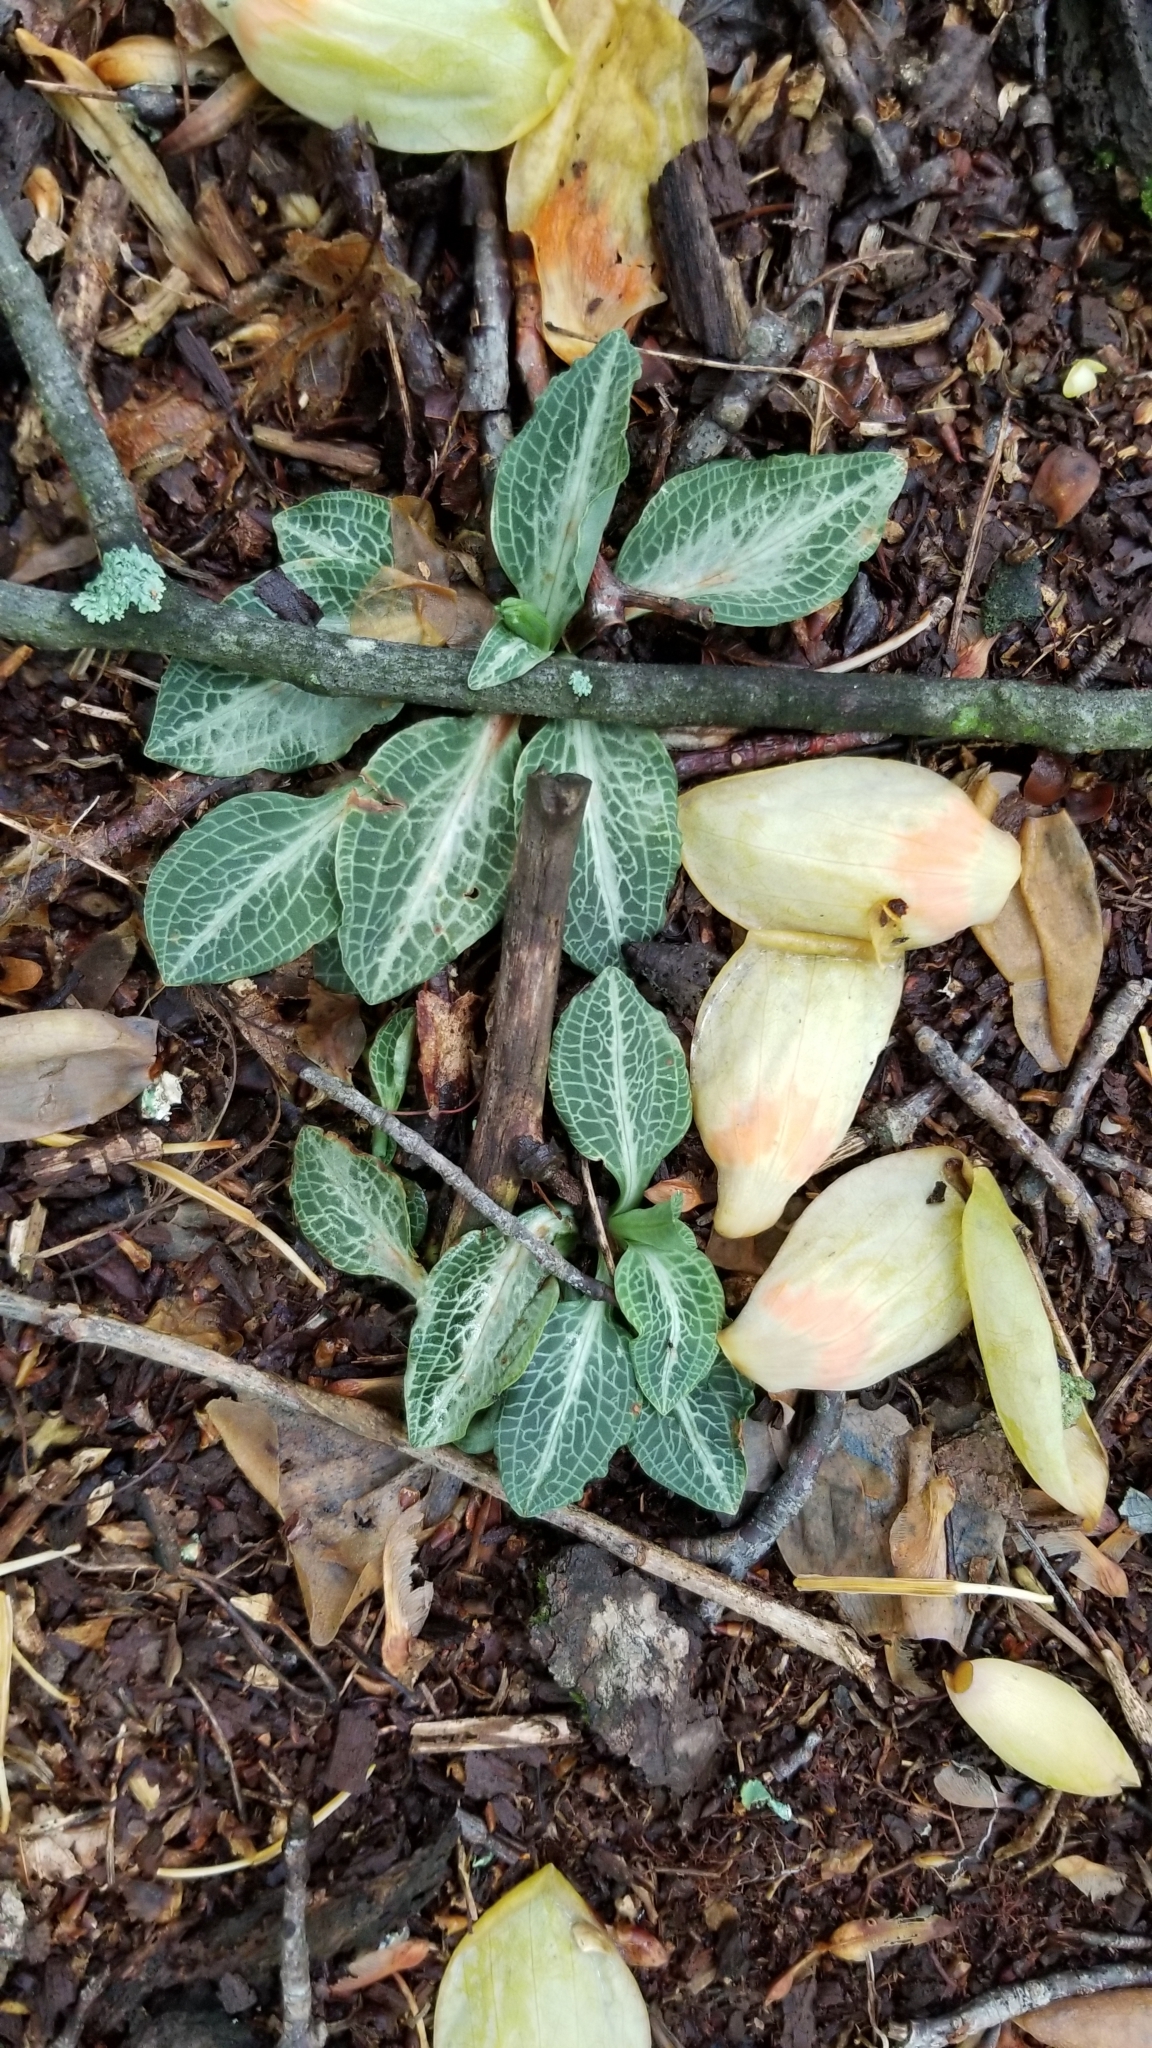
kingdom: Plantae
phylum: Tracheophyta
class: Liliopsida
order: Asparagales
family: Orchidaceae
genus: Goodyera
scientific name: Goodyera pubescens
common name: Downy rattlesnake-plantain
